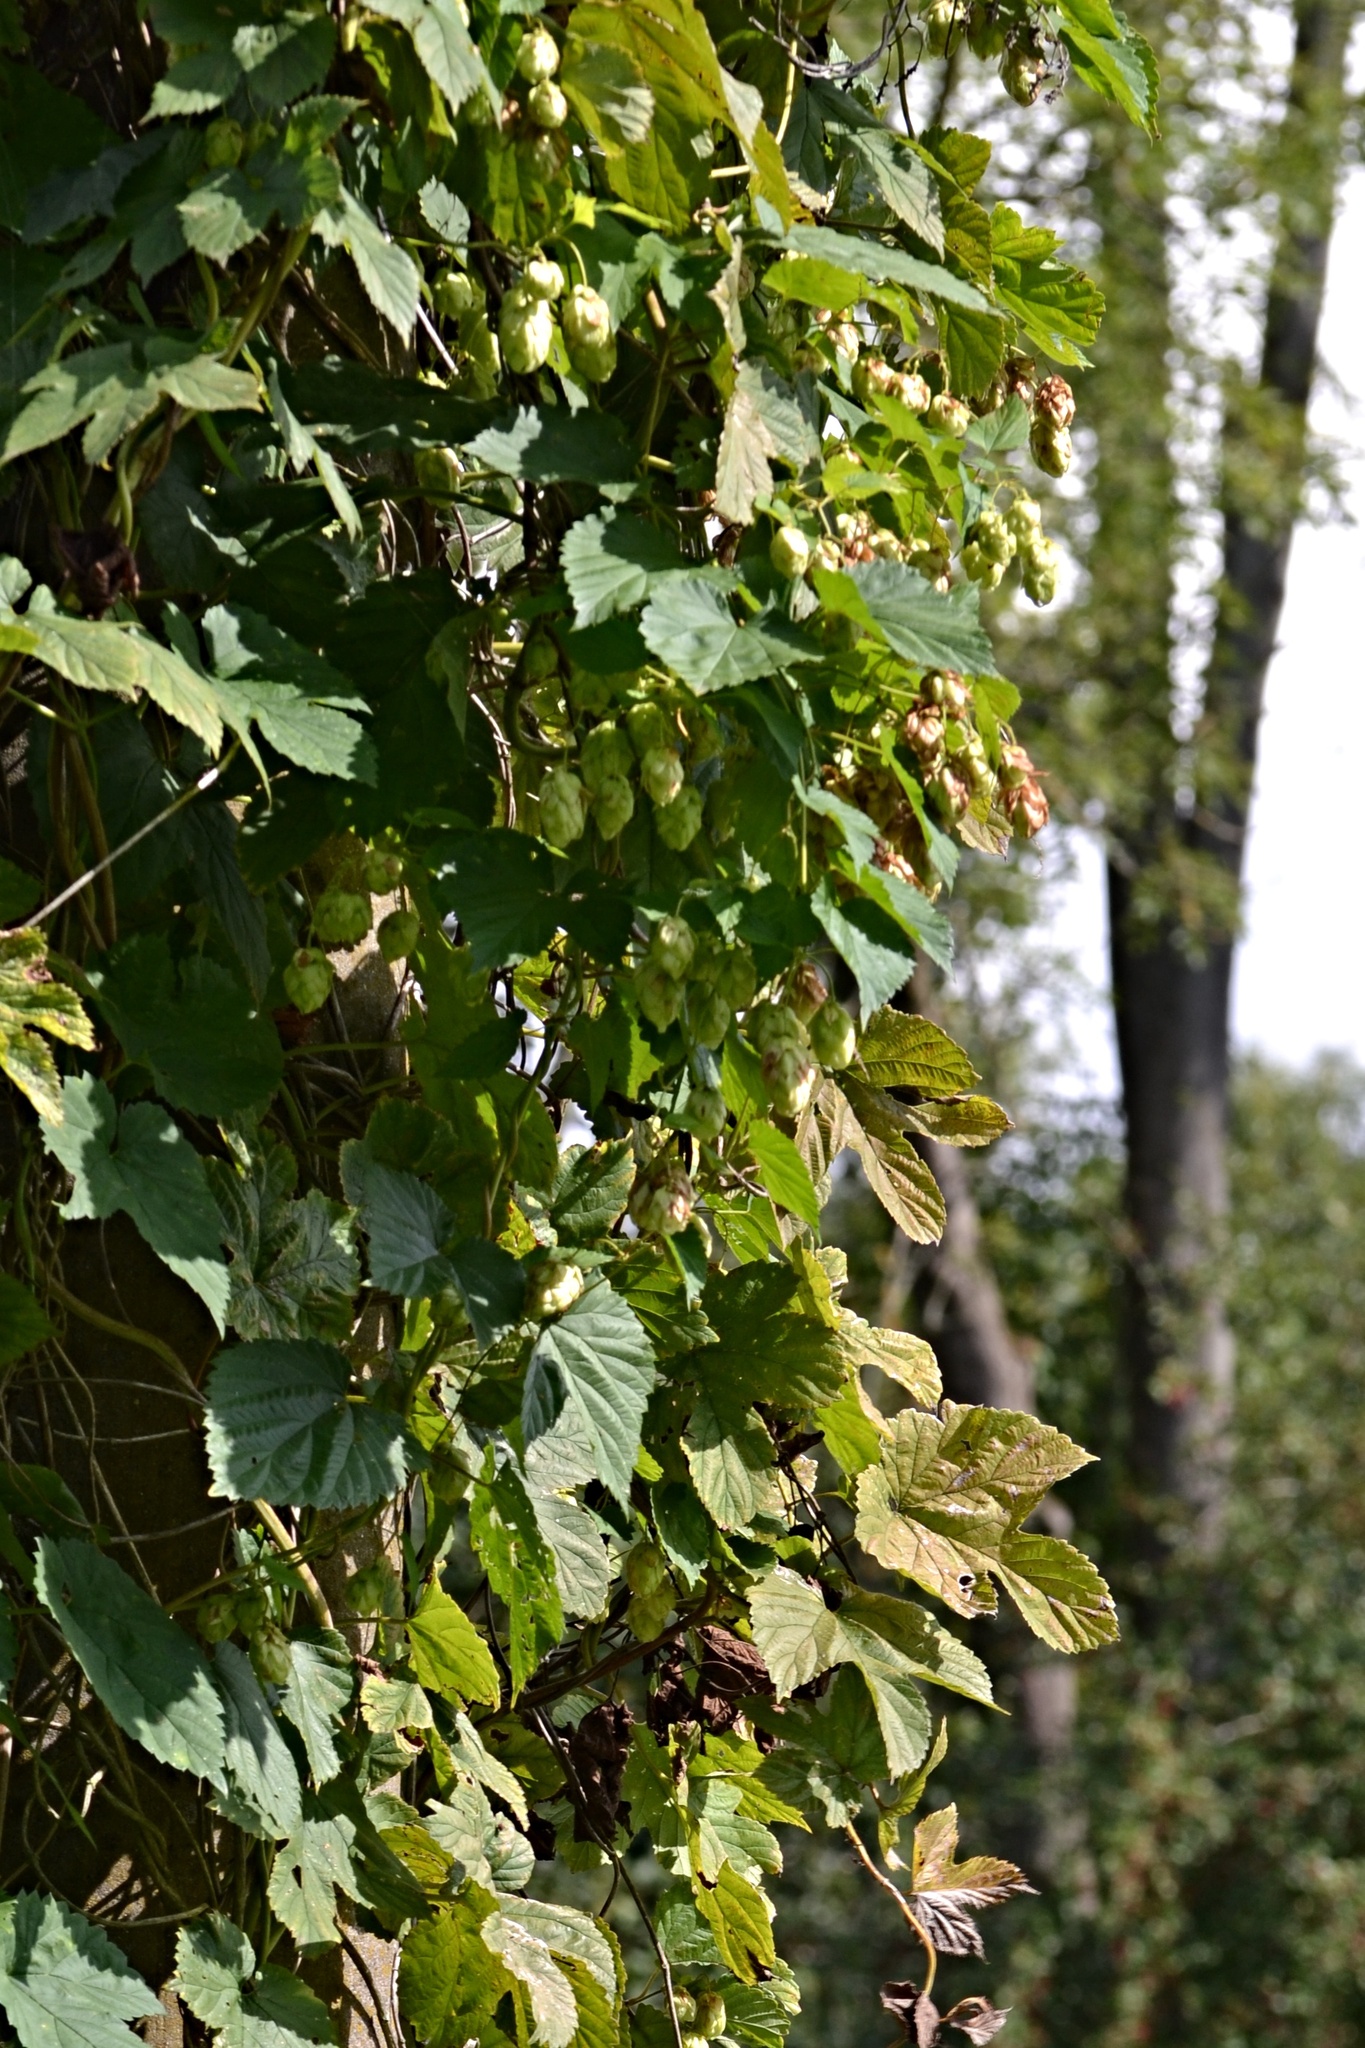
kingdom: Plantae
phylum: Tracheophyta
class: Magnoliopsida
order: Rosales
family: Cannabaceae
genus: Humulus
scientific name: Humulus lupulus
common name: Hop
